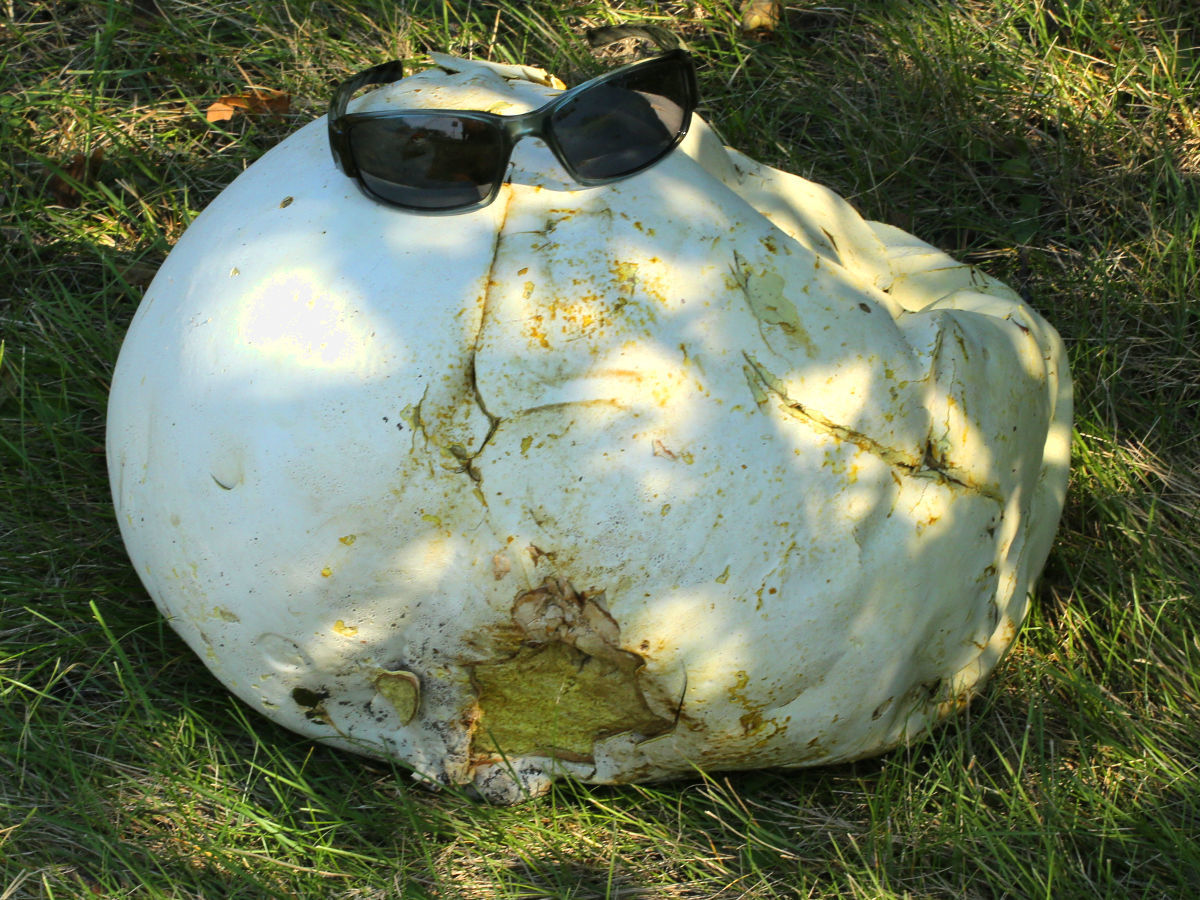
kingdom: Fungi
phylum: Basidiomycota
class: Agaricomycetes
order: Agaricales
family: Lycoperdaceae
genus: Calvatia
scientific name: Calvatia gigantea
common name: Giant puffball
